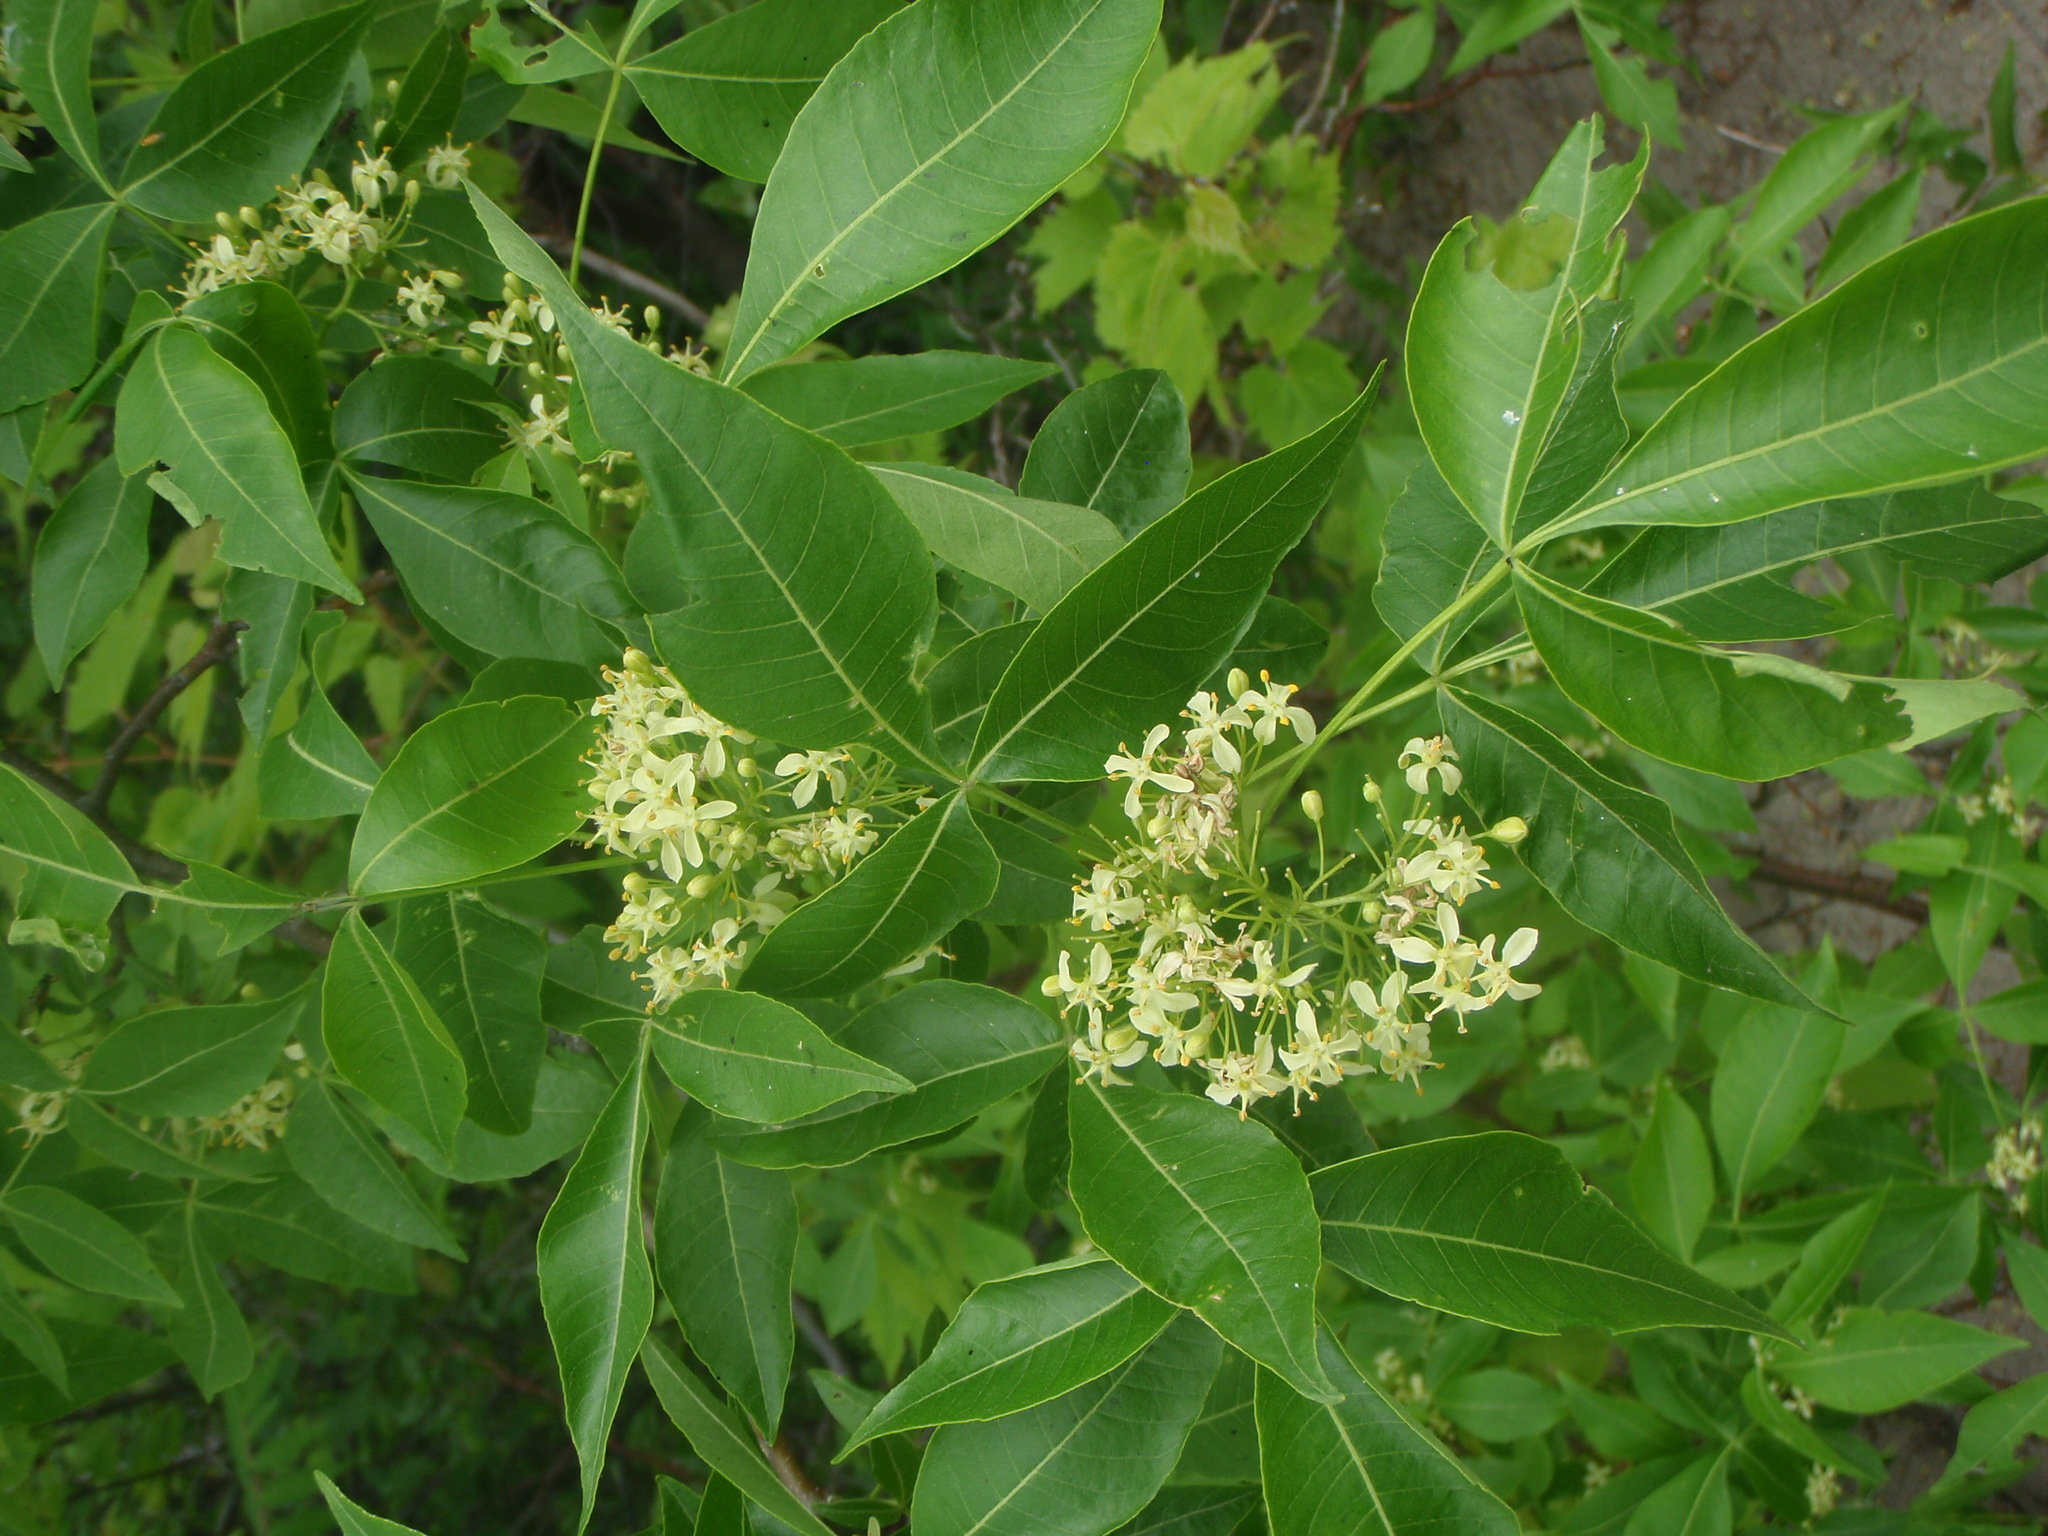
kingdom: Plantae
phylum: Tracheophyta
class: Magnoliopsida
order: Sapindales
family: Rutaceae
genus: Ptelea
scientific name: Ptelea trifoliata
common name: Common hop-tree
